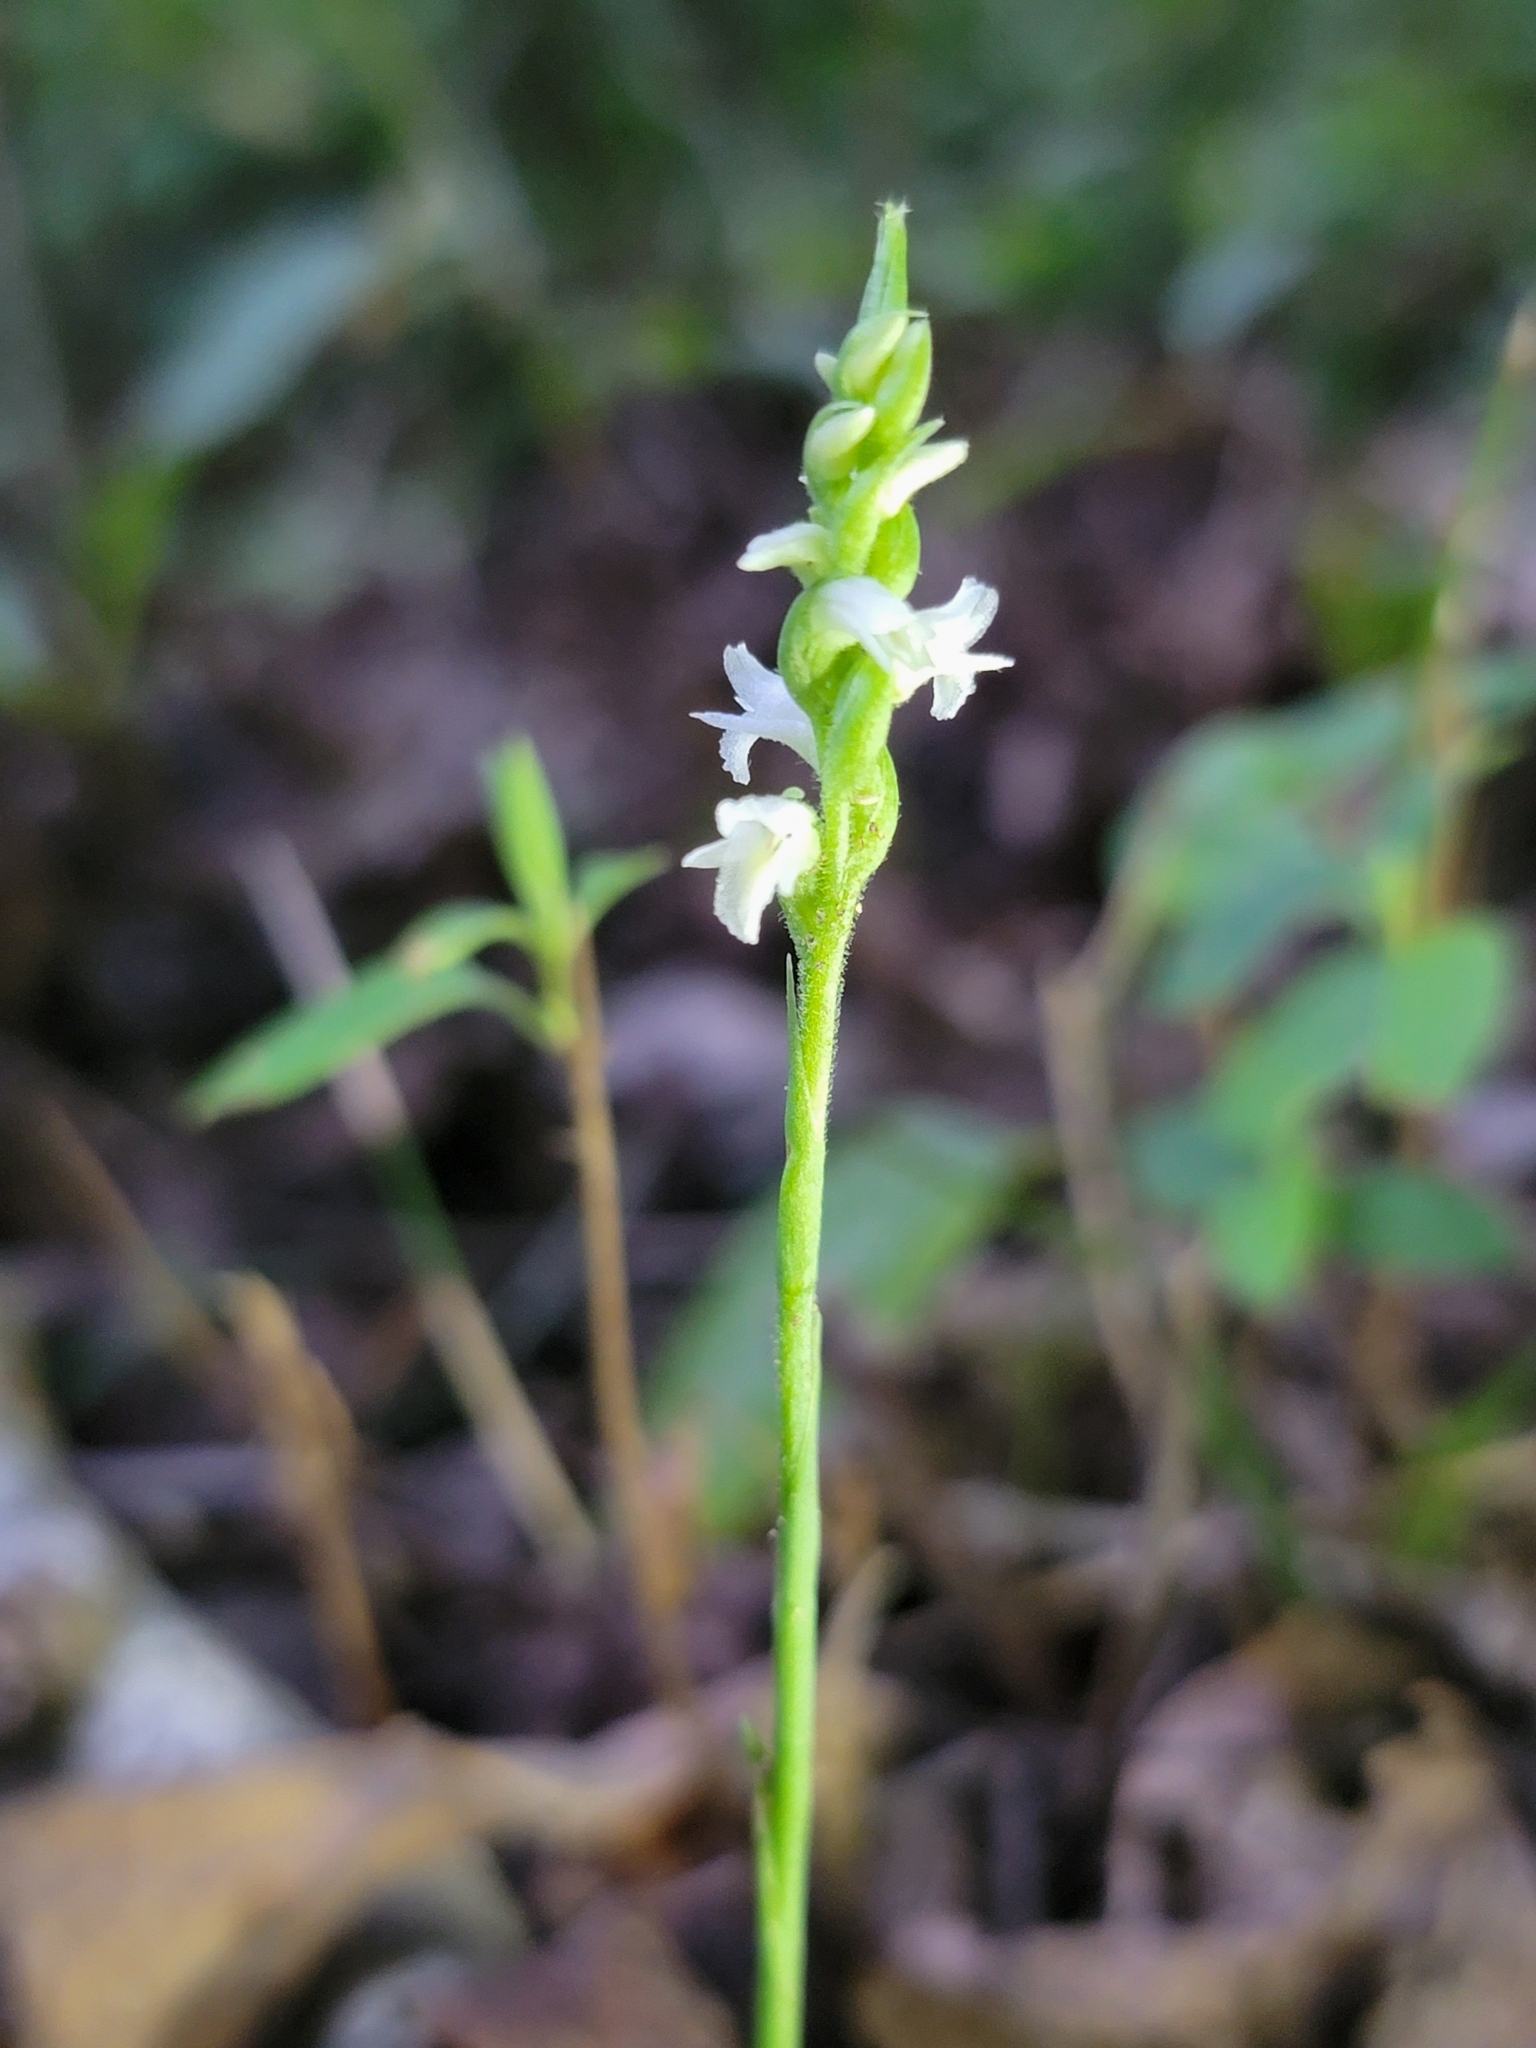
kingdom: Plantae
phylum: Tracheophyta
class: Liliopsida
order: Asparagales
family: Orchidaceae
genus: Spiranthes
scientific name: Spiranthes ovalis
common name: October ladies'-tresses
